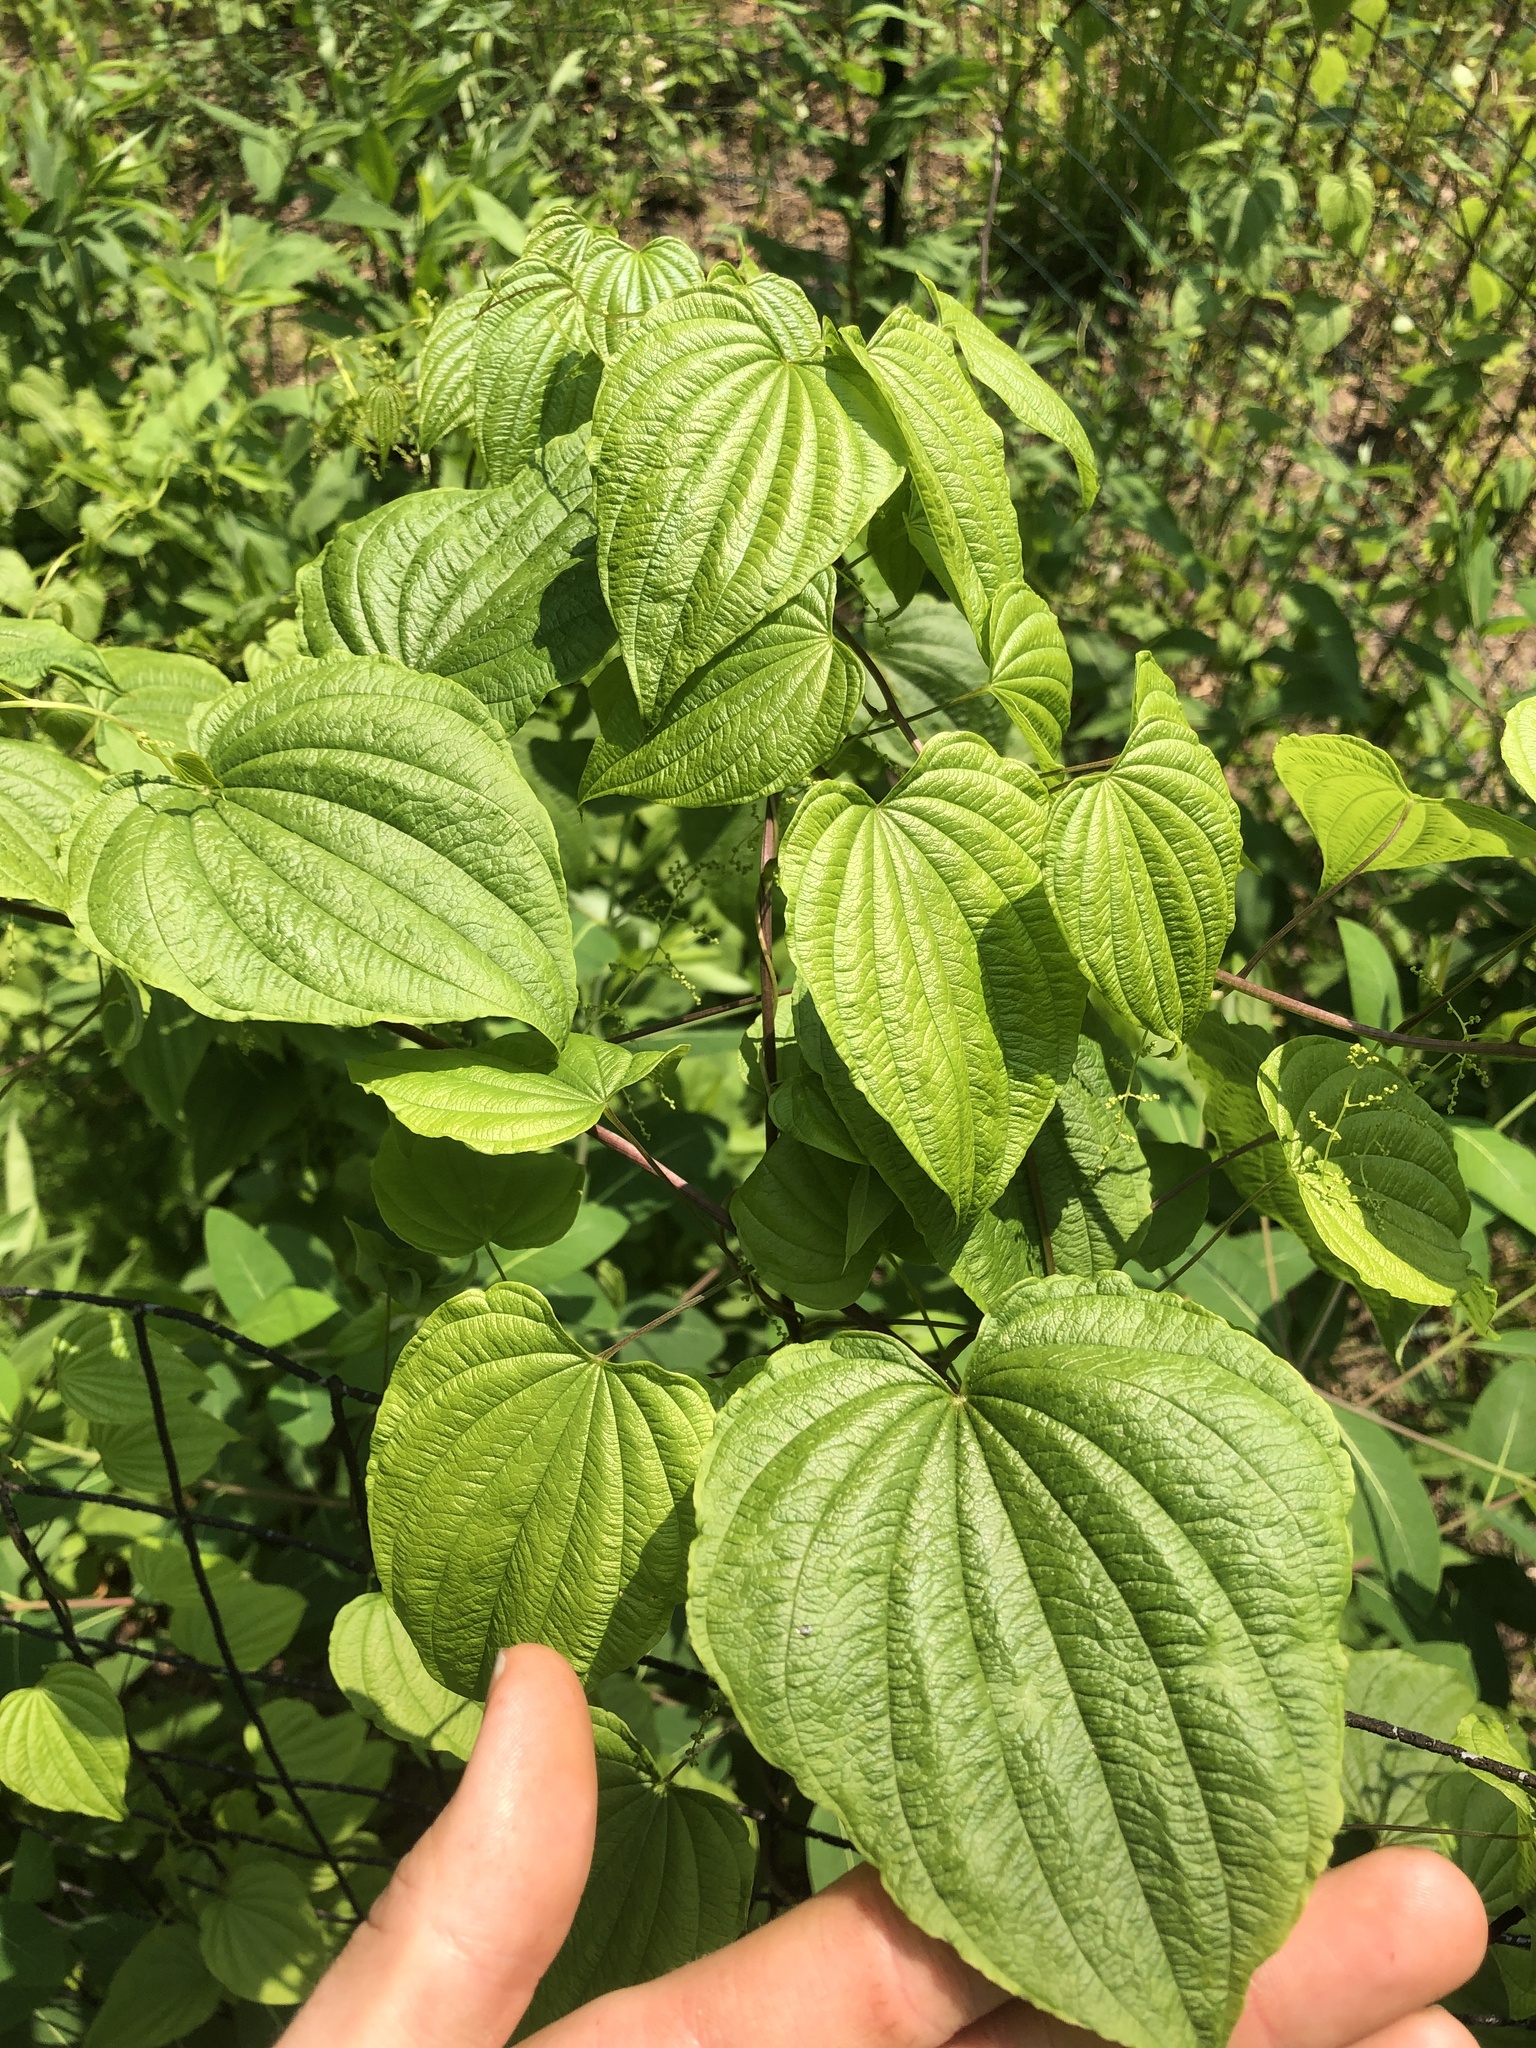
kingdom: Plantae
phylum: Tracheophyta
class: Liliopsida
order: Dioscoreales
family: Dioscoreaceae
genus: Dioscorea
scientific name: Dioscorea villosa
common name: Wild yam
